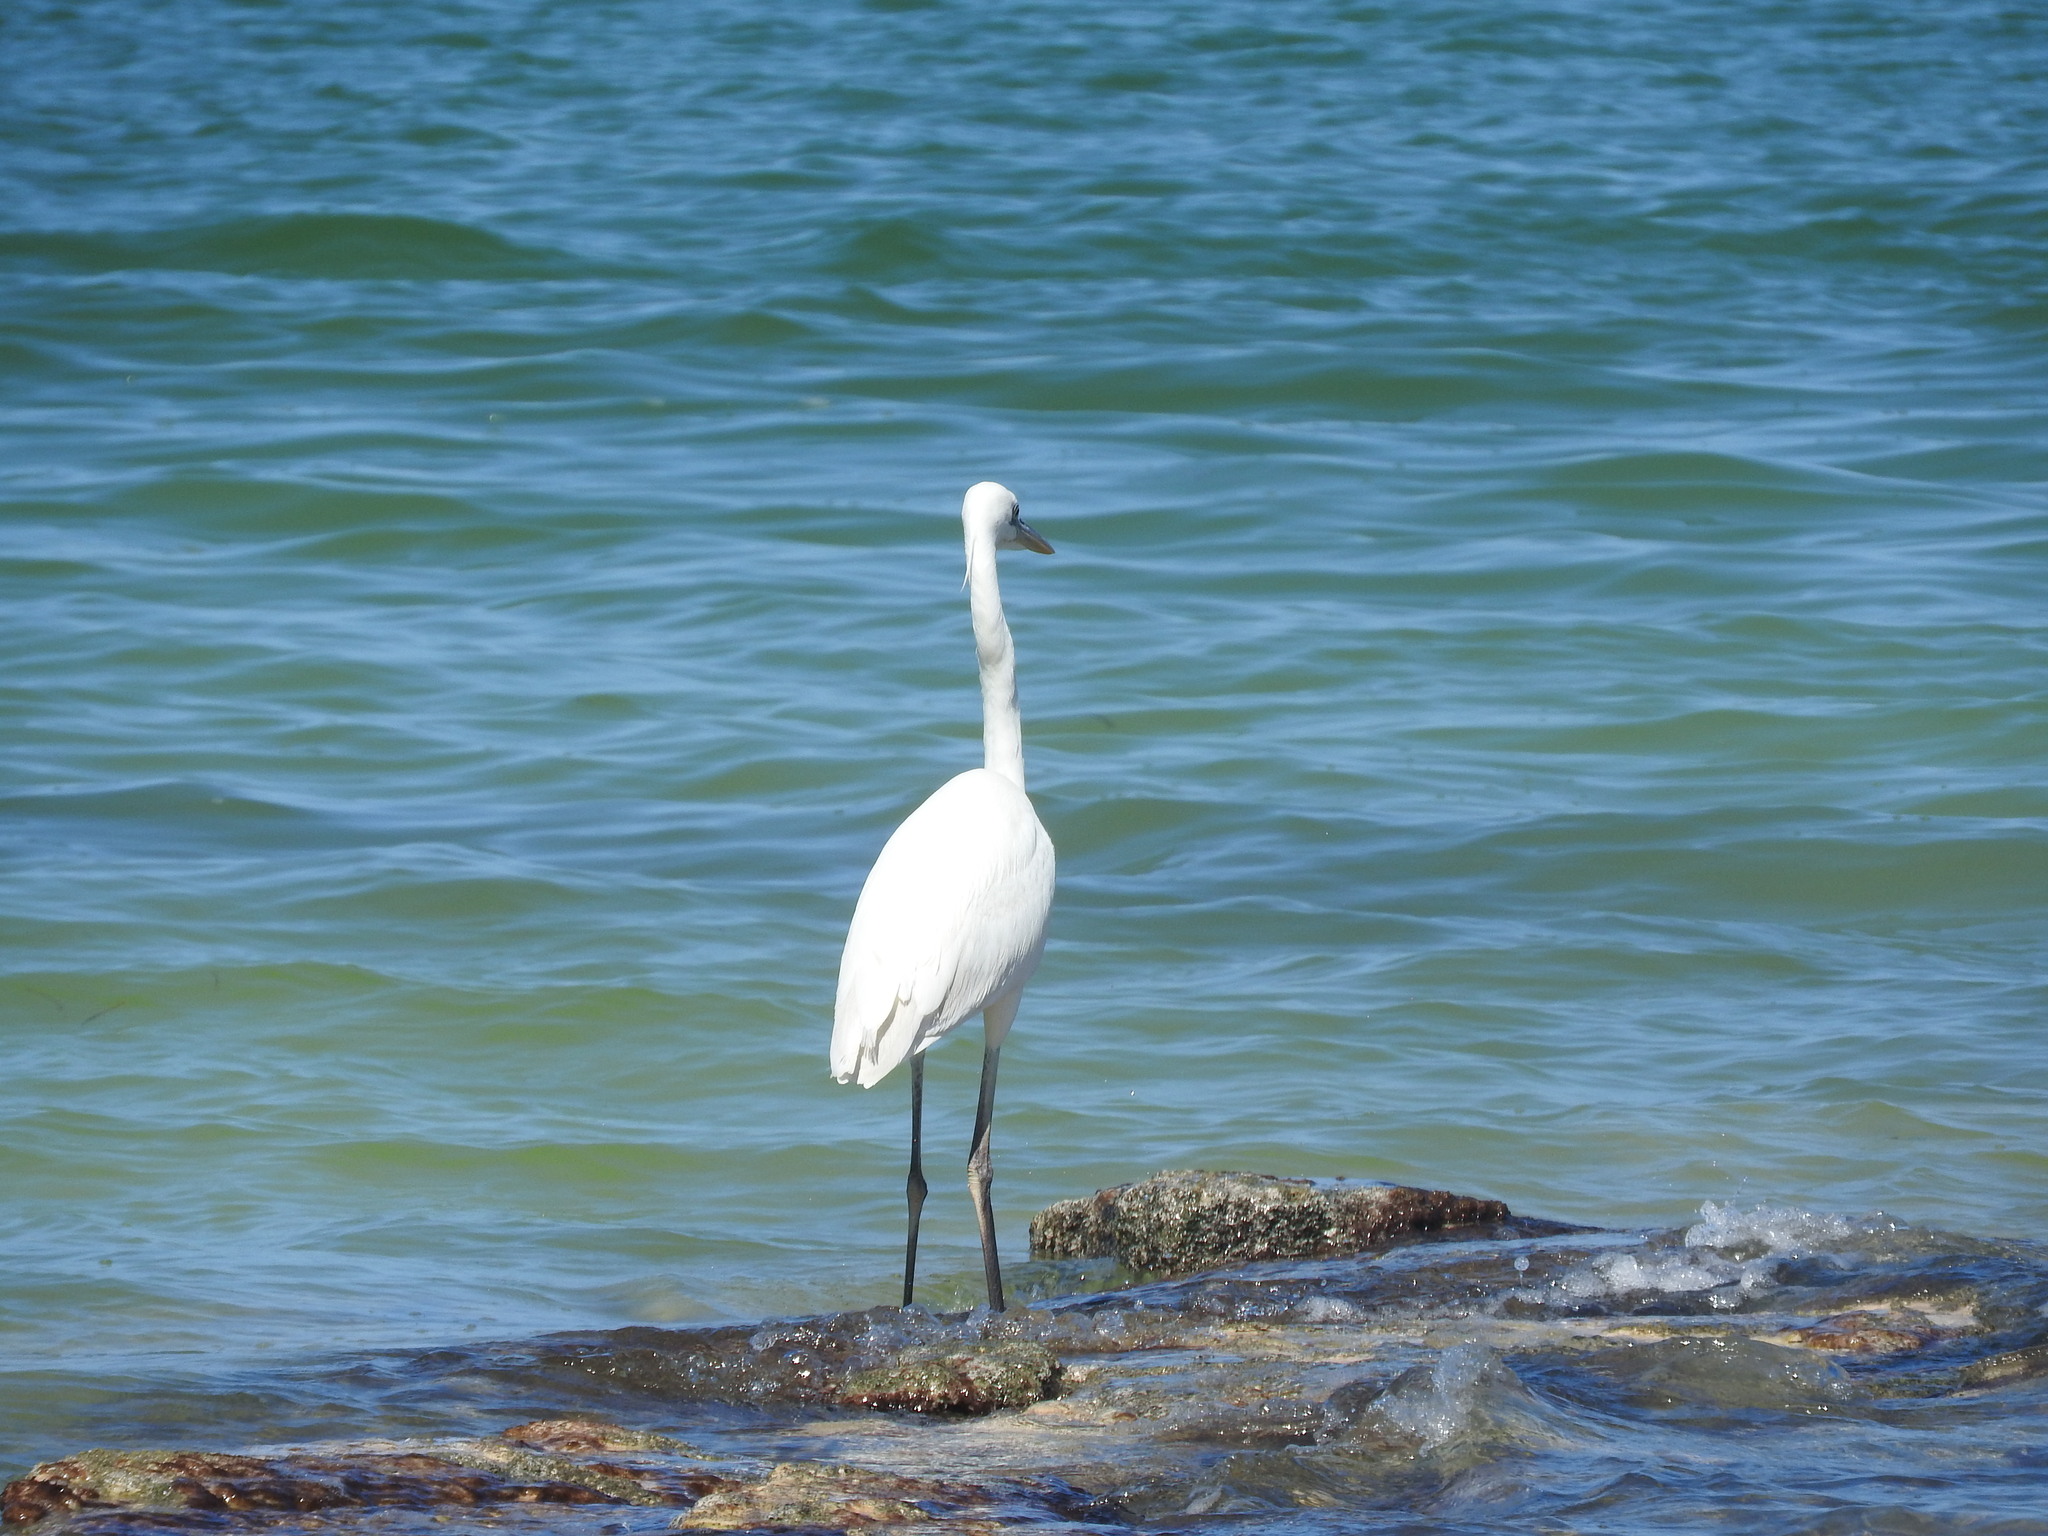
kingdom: Animalia
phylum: Chordata
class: Aves
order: Pelecaniformes
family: Ardeidae
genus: Ardea
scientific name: Ardea herodias
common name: Great blue heron
